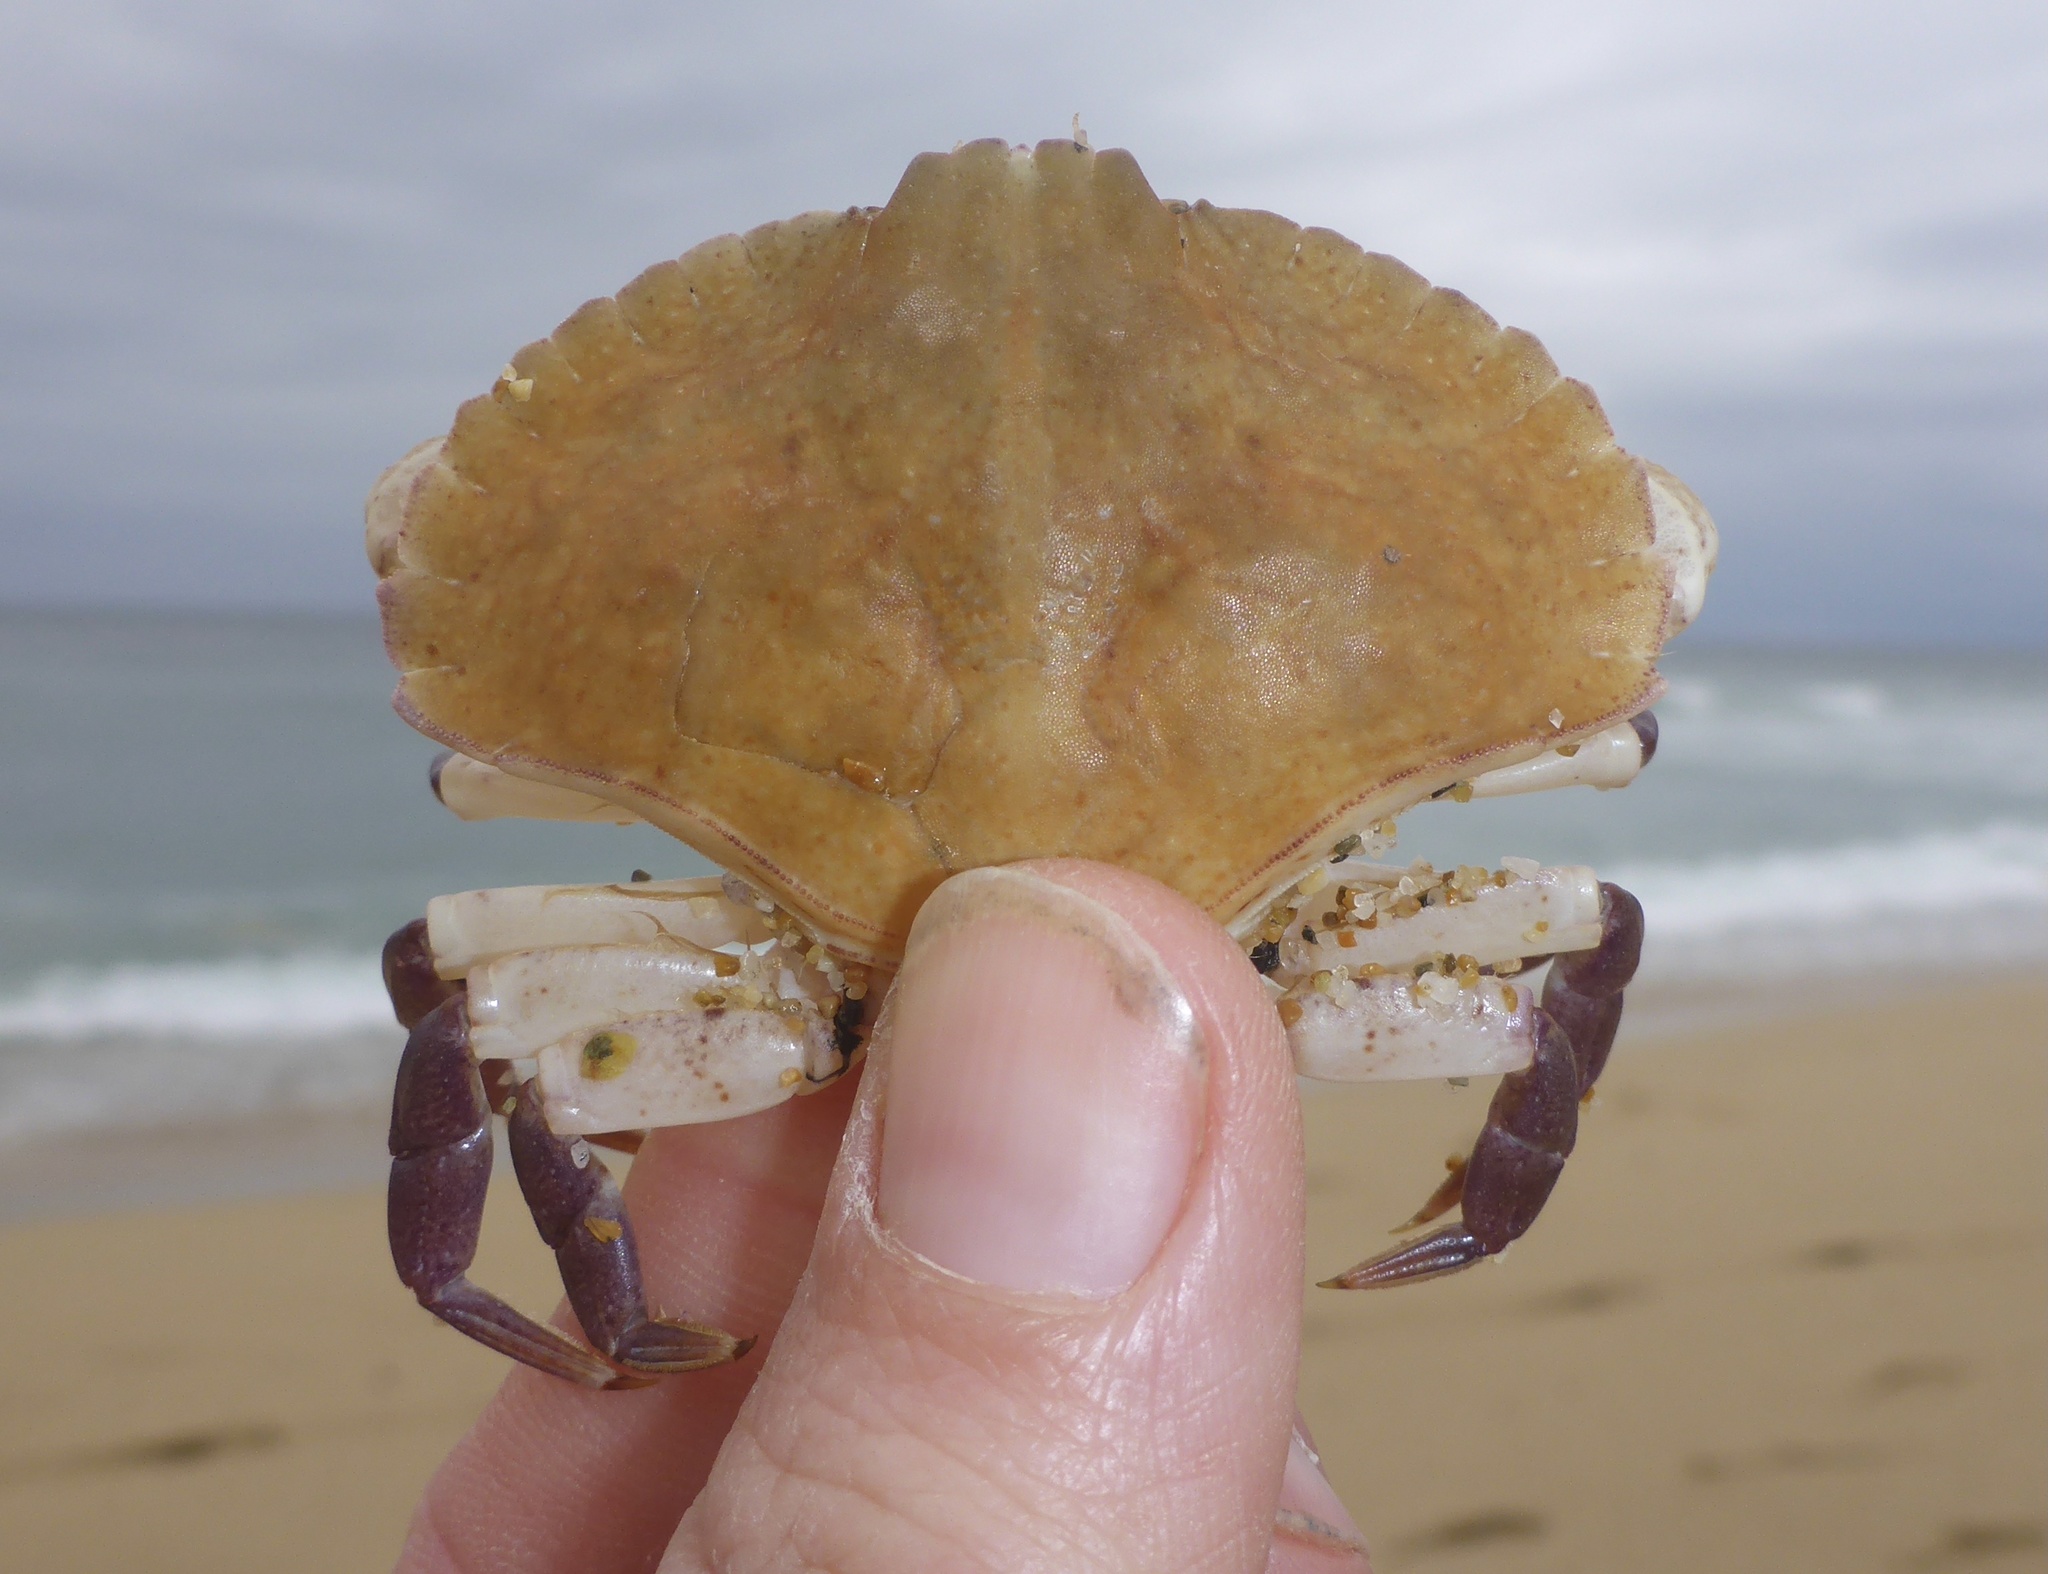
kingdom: Animalia
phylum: Arthropoda
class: Malacostraca
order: Decapoda
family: Cancridae
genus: Cancer
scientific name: Cancer productus
